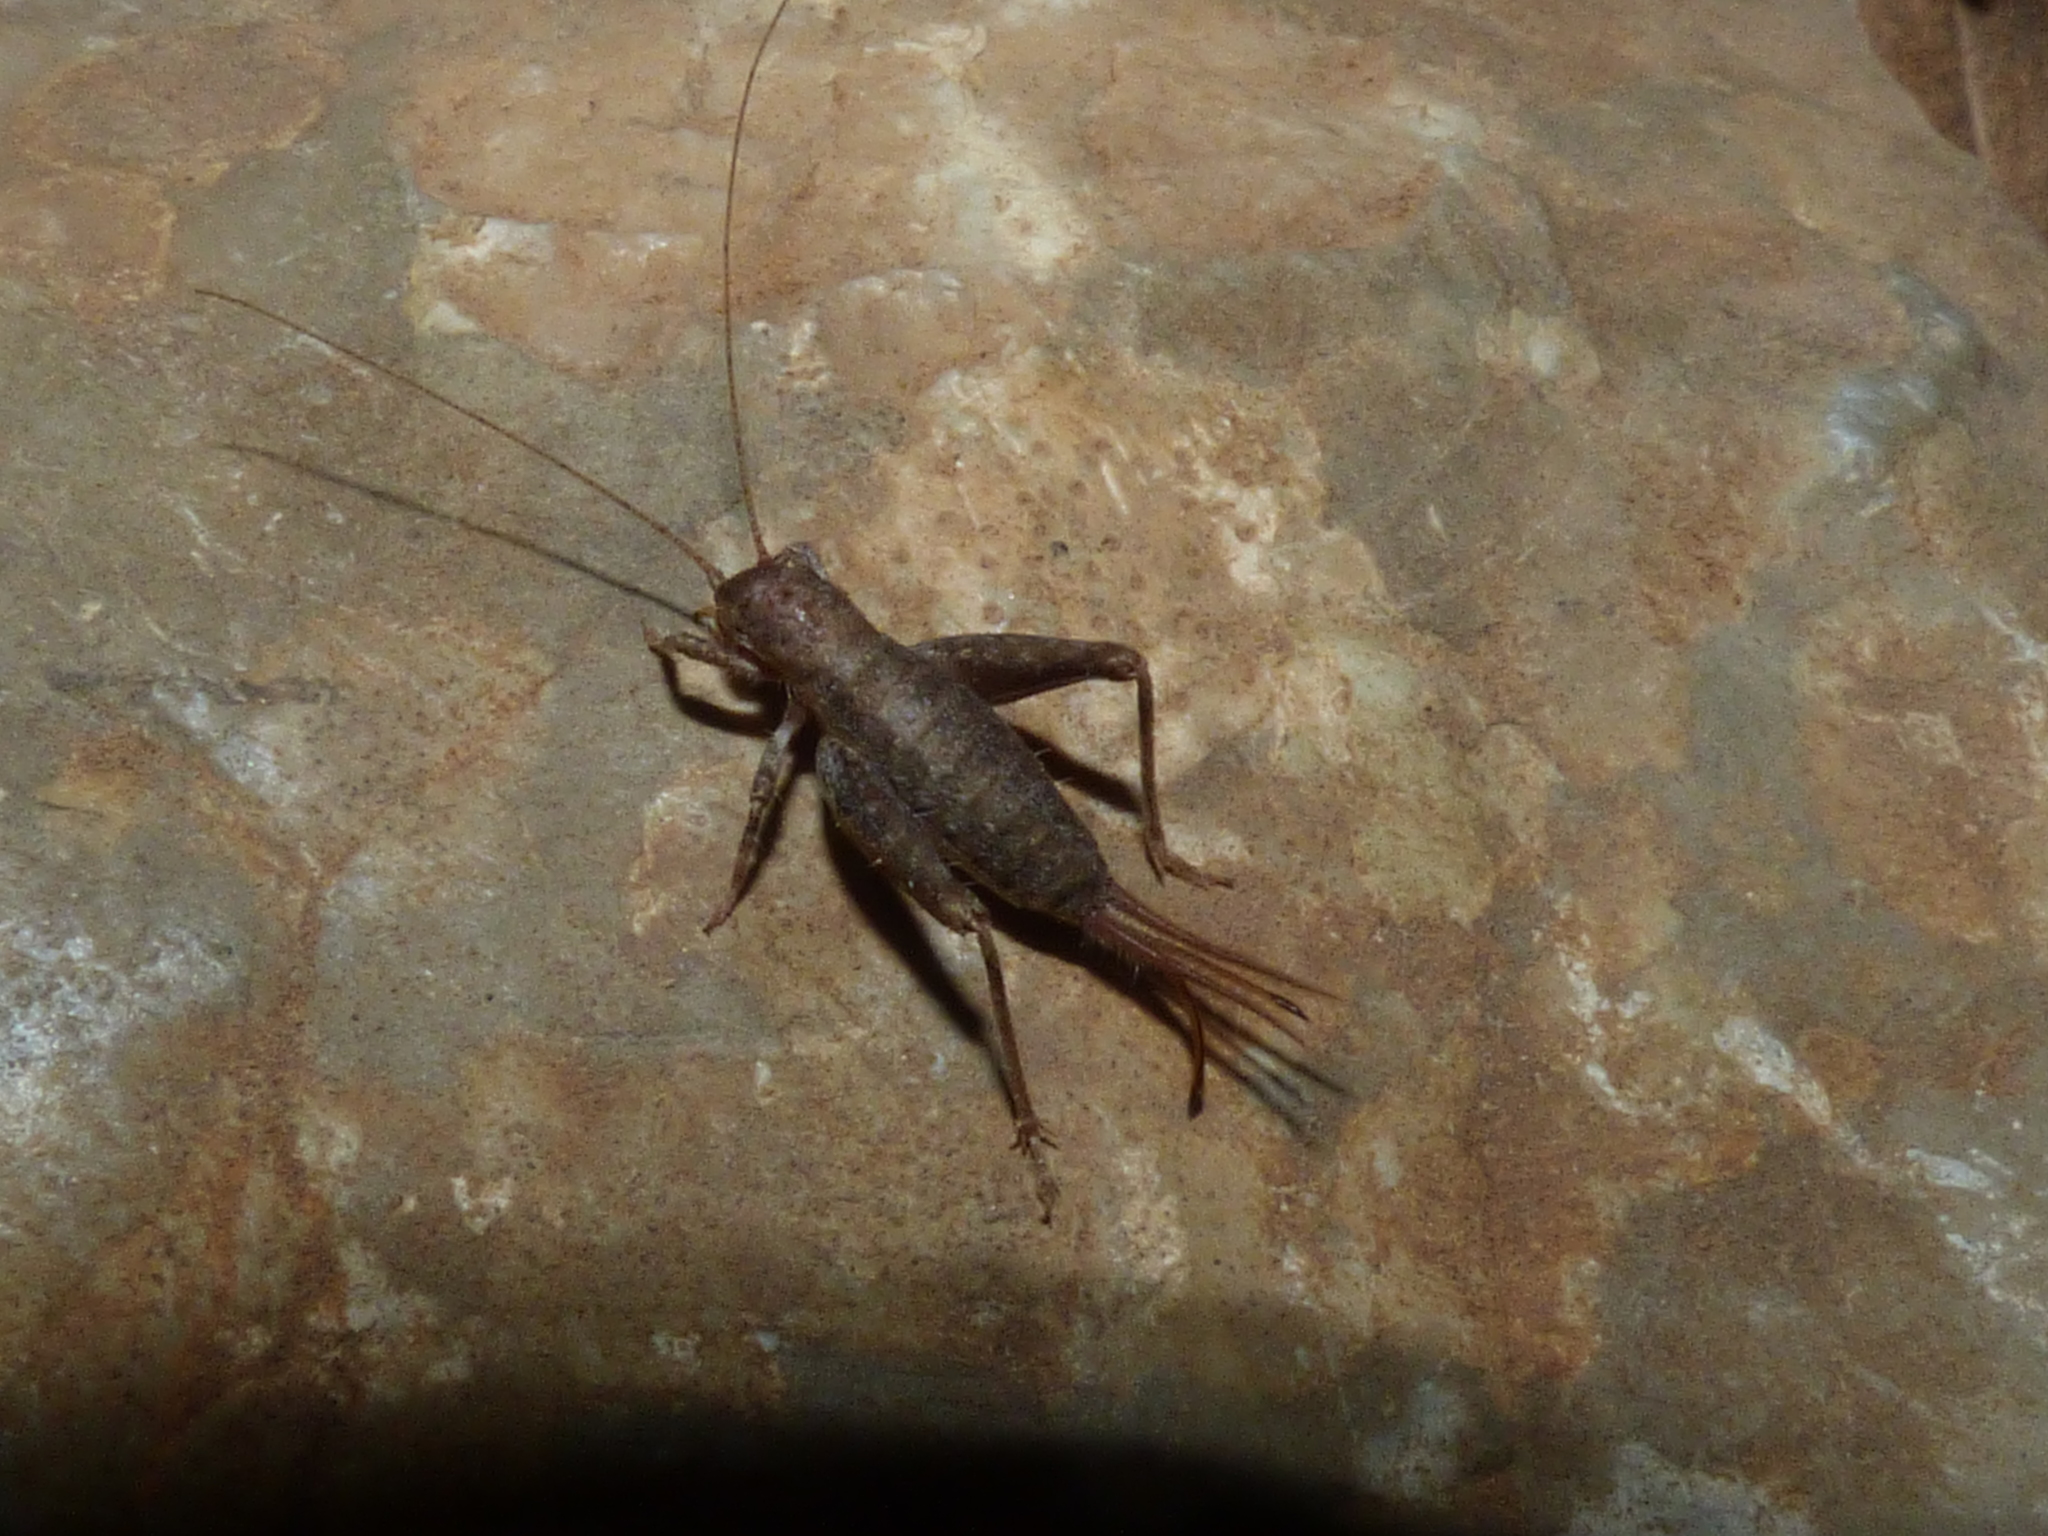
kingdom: Animalia
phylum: Arthropoda
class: Insecta
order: Orthoptera
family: Mogoplistidae
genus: Arachnocephalus
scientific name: Arachnocephalus vestitus
